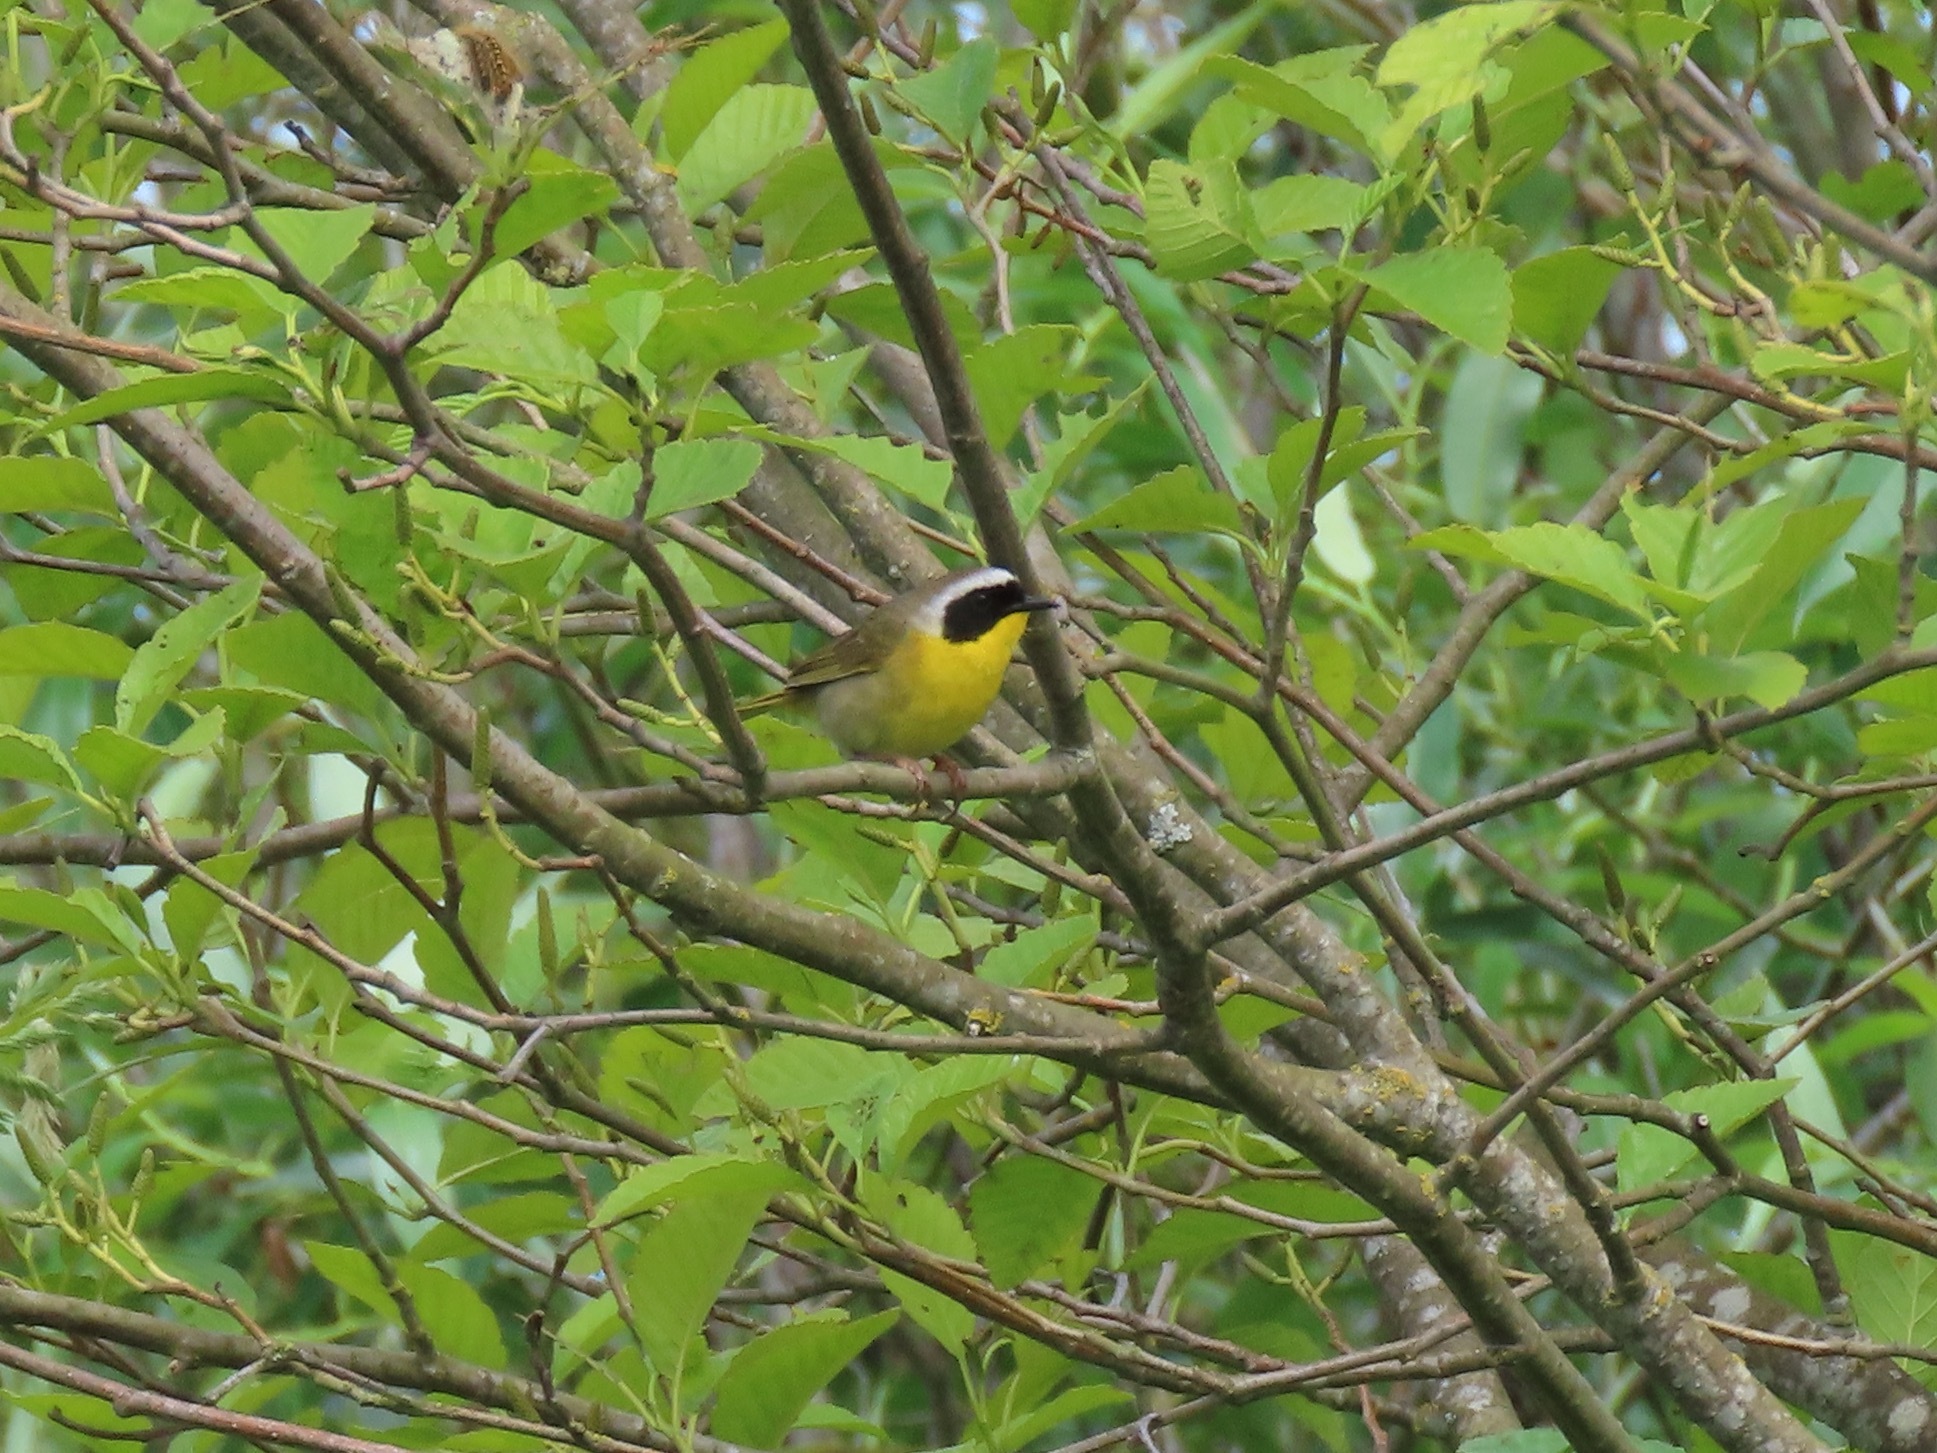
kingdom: Animalia
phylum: Chordata
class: Aves
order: Passeriformes
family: Parulidae
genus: Geothlypis
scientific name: Geothlypis trichas
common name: Common yellowthroat
